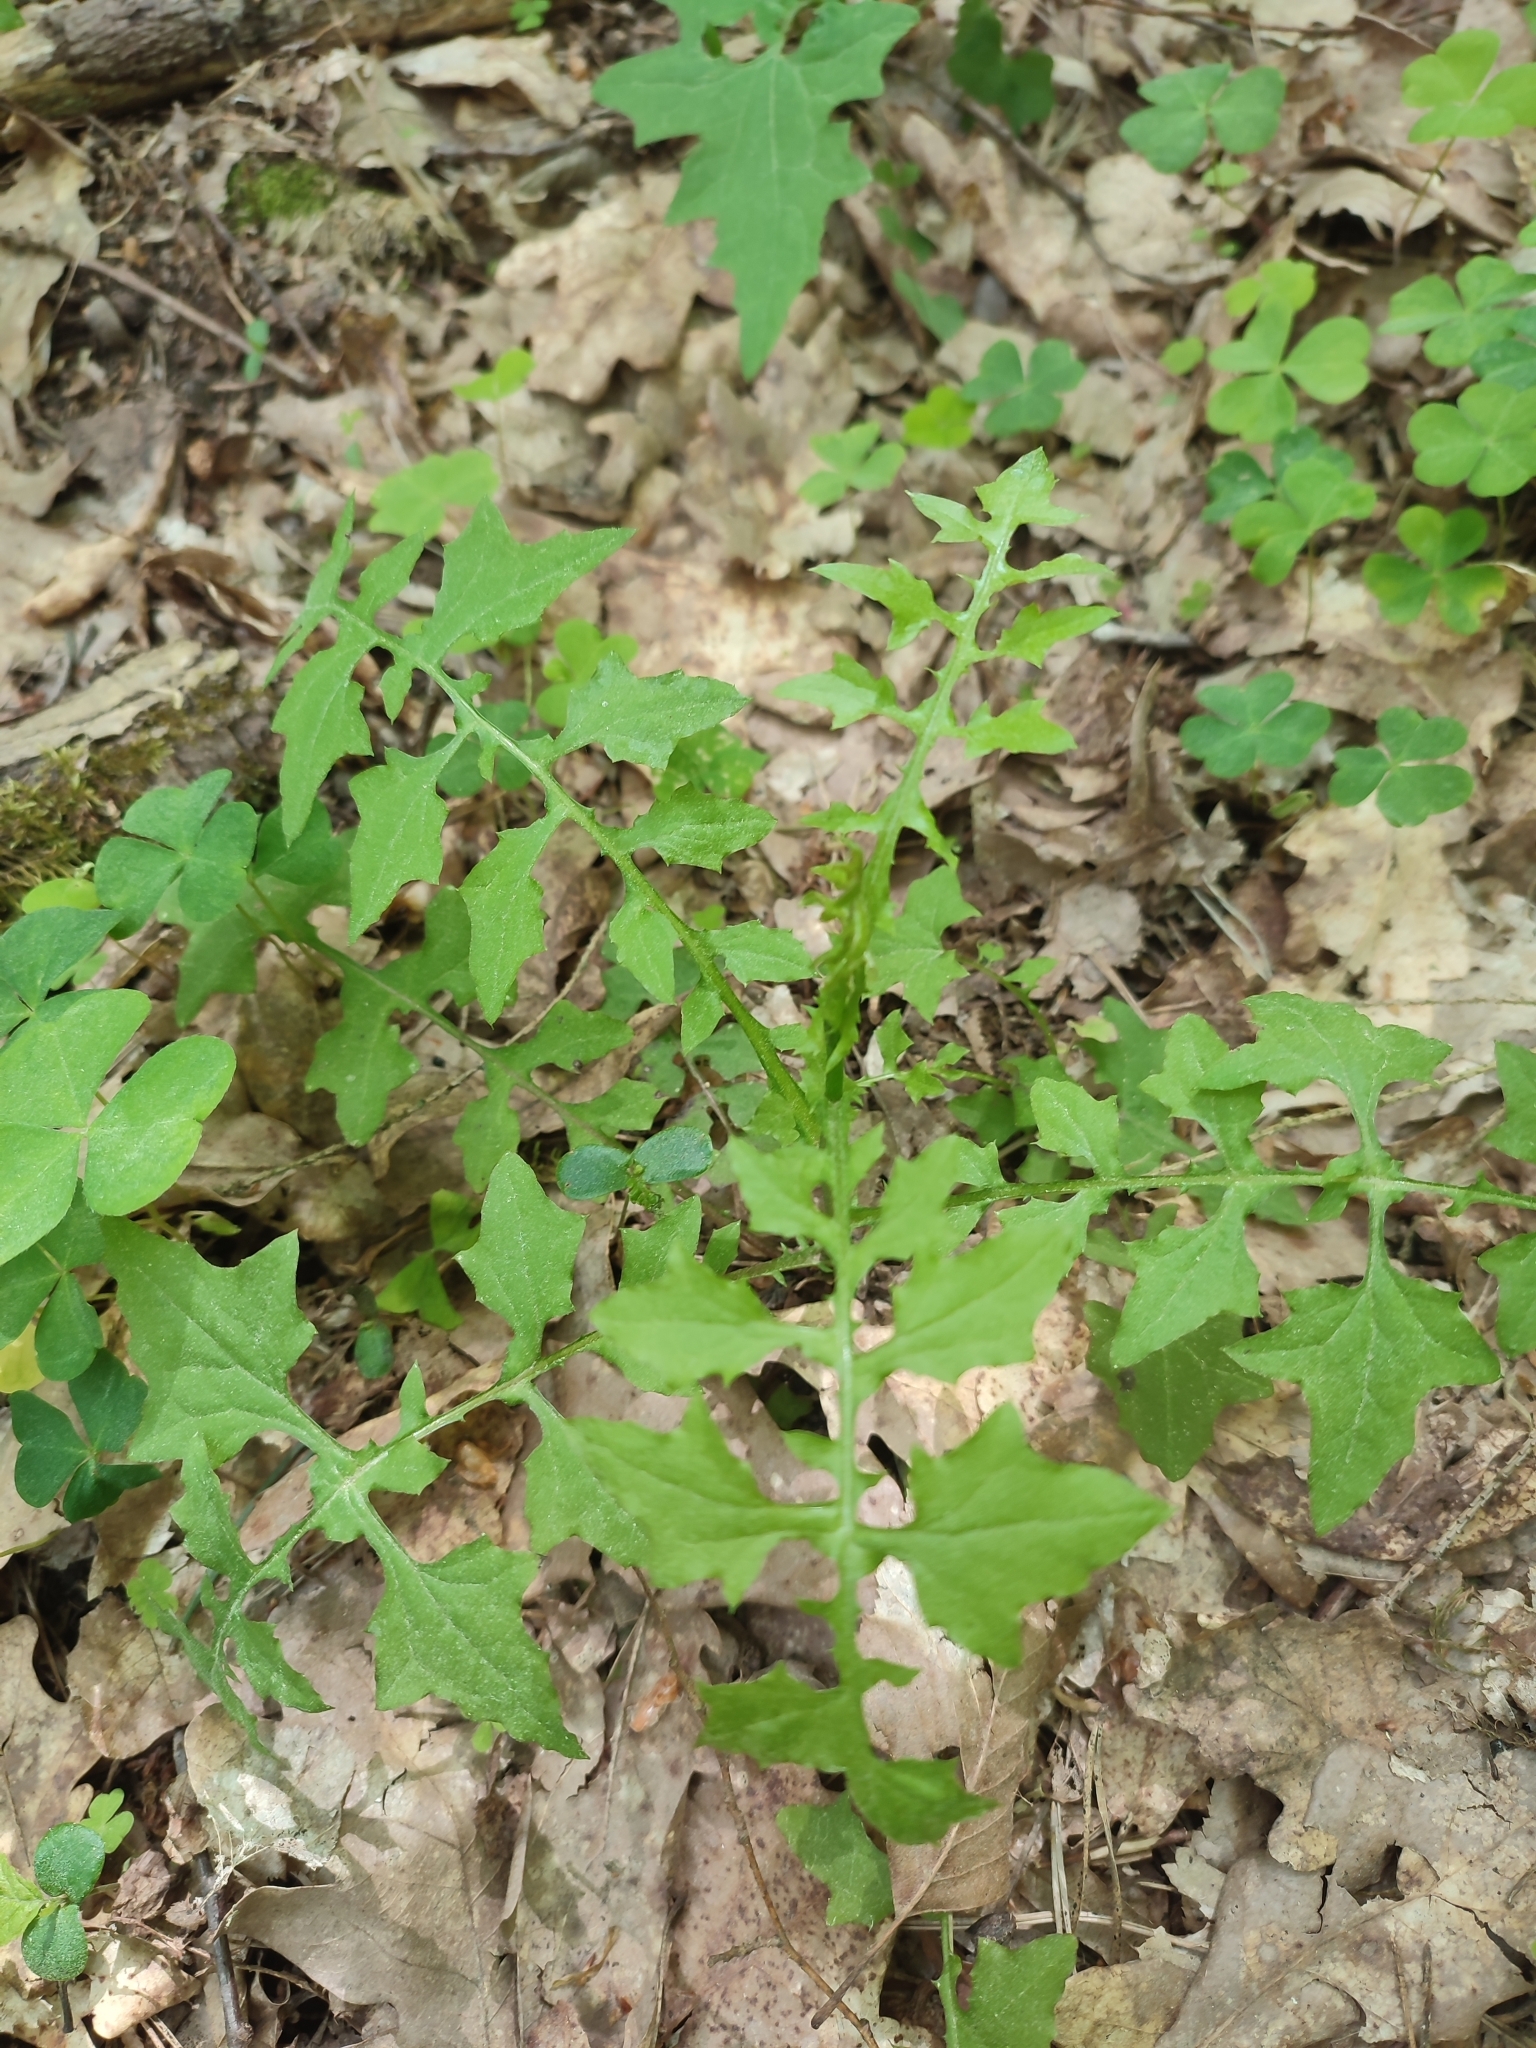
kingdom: Plantae
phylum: Tracheophyta
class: Magnoliopsida
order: Asterales
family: Asteraceae
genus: Mycelis
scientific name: Mycelis muralis
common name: Wall lettuce
